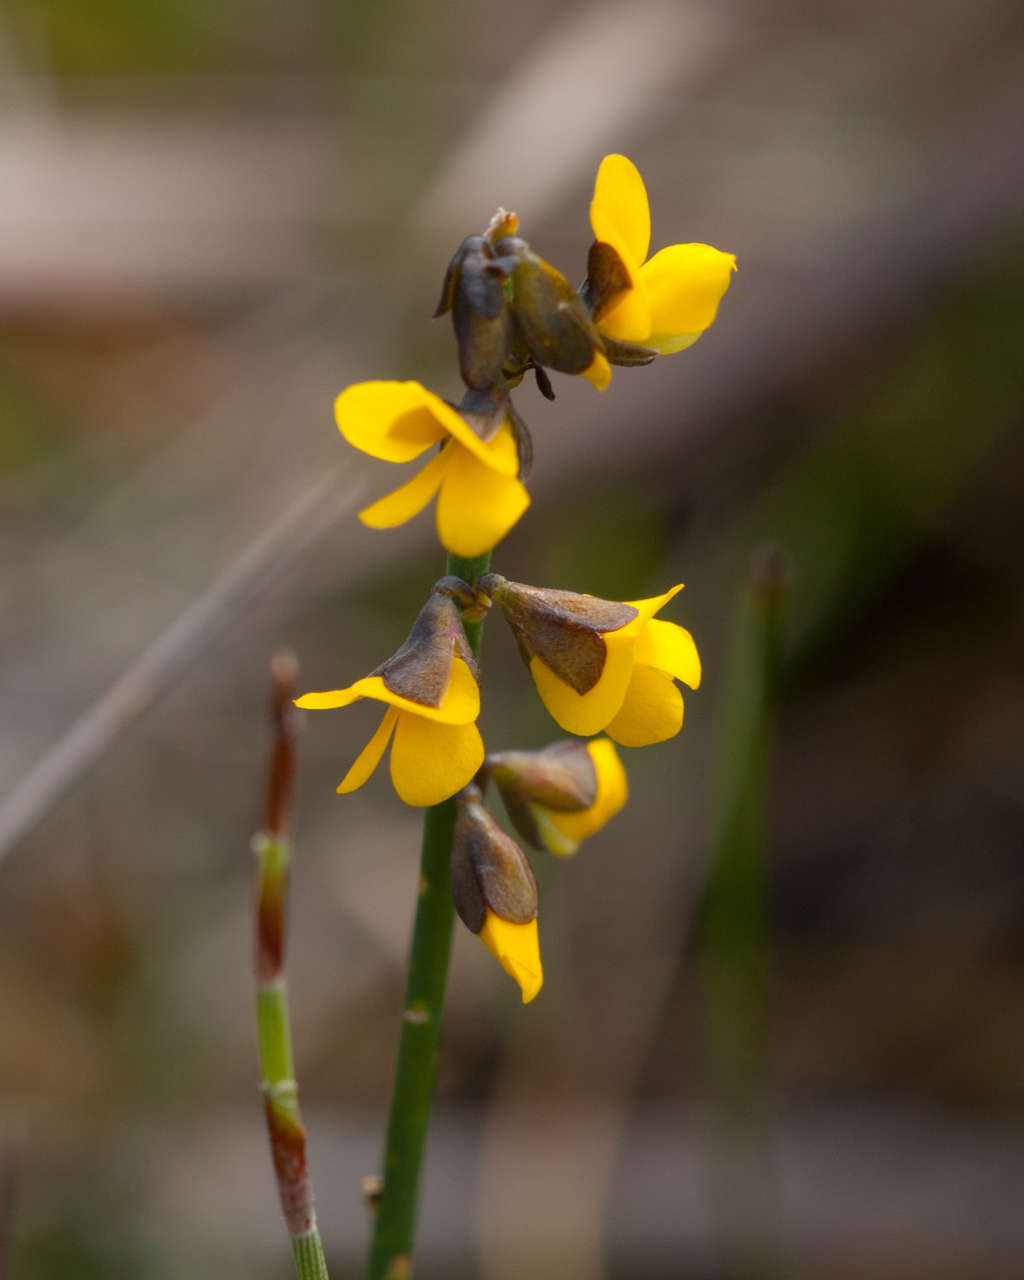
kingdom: Plantae
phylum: Tracheophyta
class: Magnoliopsida
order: Fabales
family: Fabaceae
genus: Sphaerolobium
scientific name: Sphaerolobium minus
